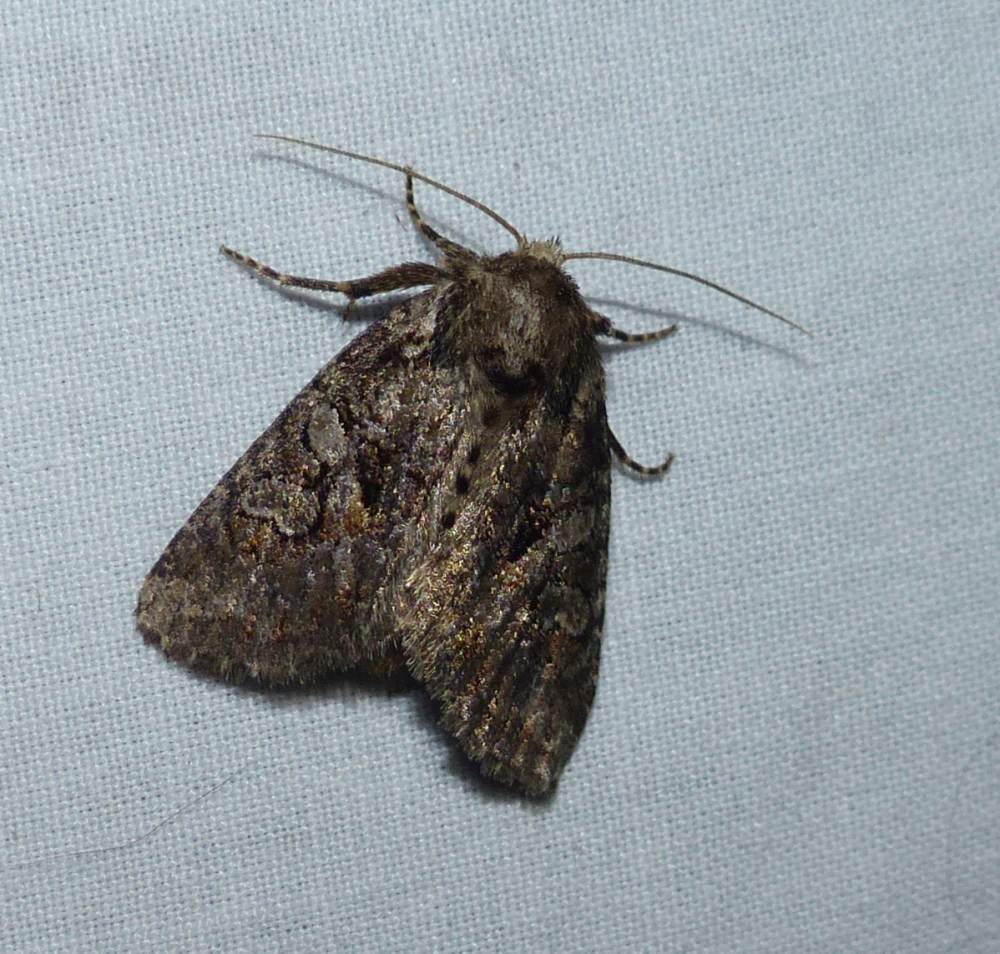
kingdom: Animalia
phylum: Arthropoda
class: Insecta
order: Lepidoptera
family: Noctuidae
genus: Orthodes
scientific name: Orthodes detracta
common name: Disparaged arches moth
